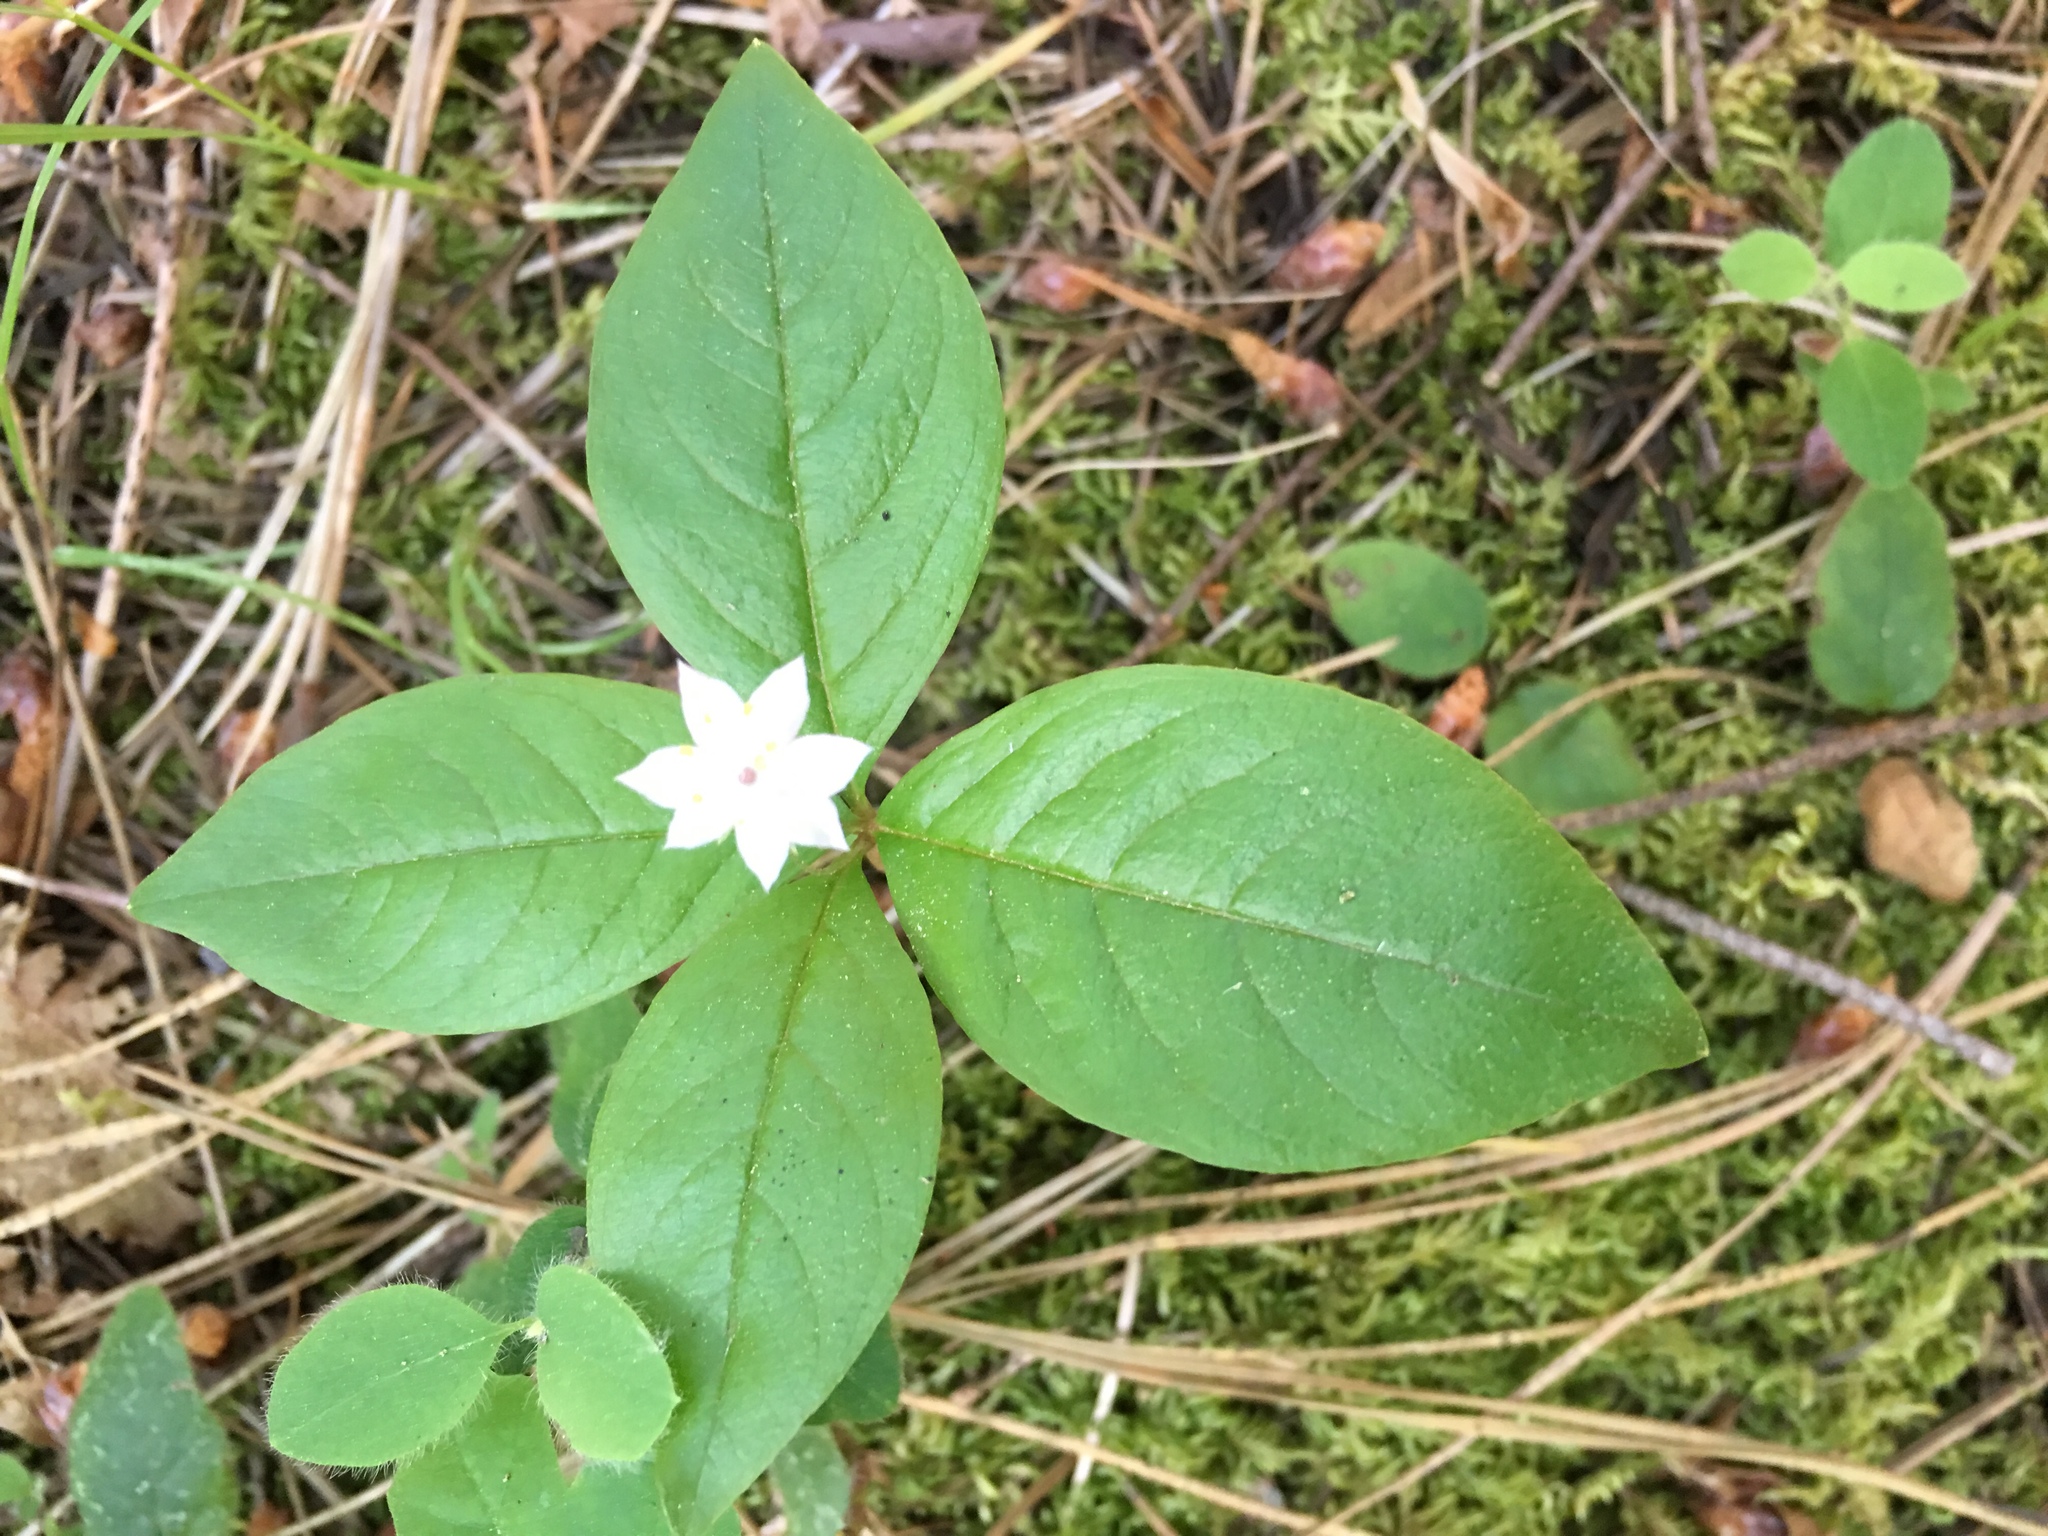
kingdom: Plantae
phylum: Tracheophyta
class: Magnoliopsida
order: Ericales
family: Primulaceae
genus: Lysimachia
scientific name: Lysimachia latifolia
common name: Pacific starflower
